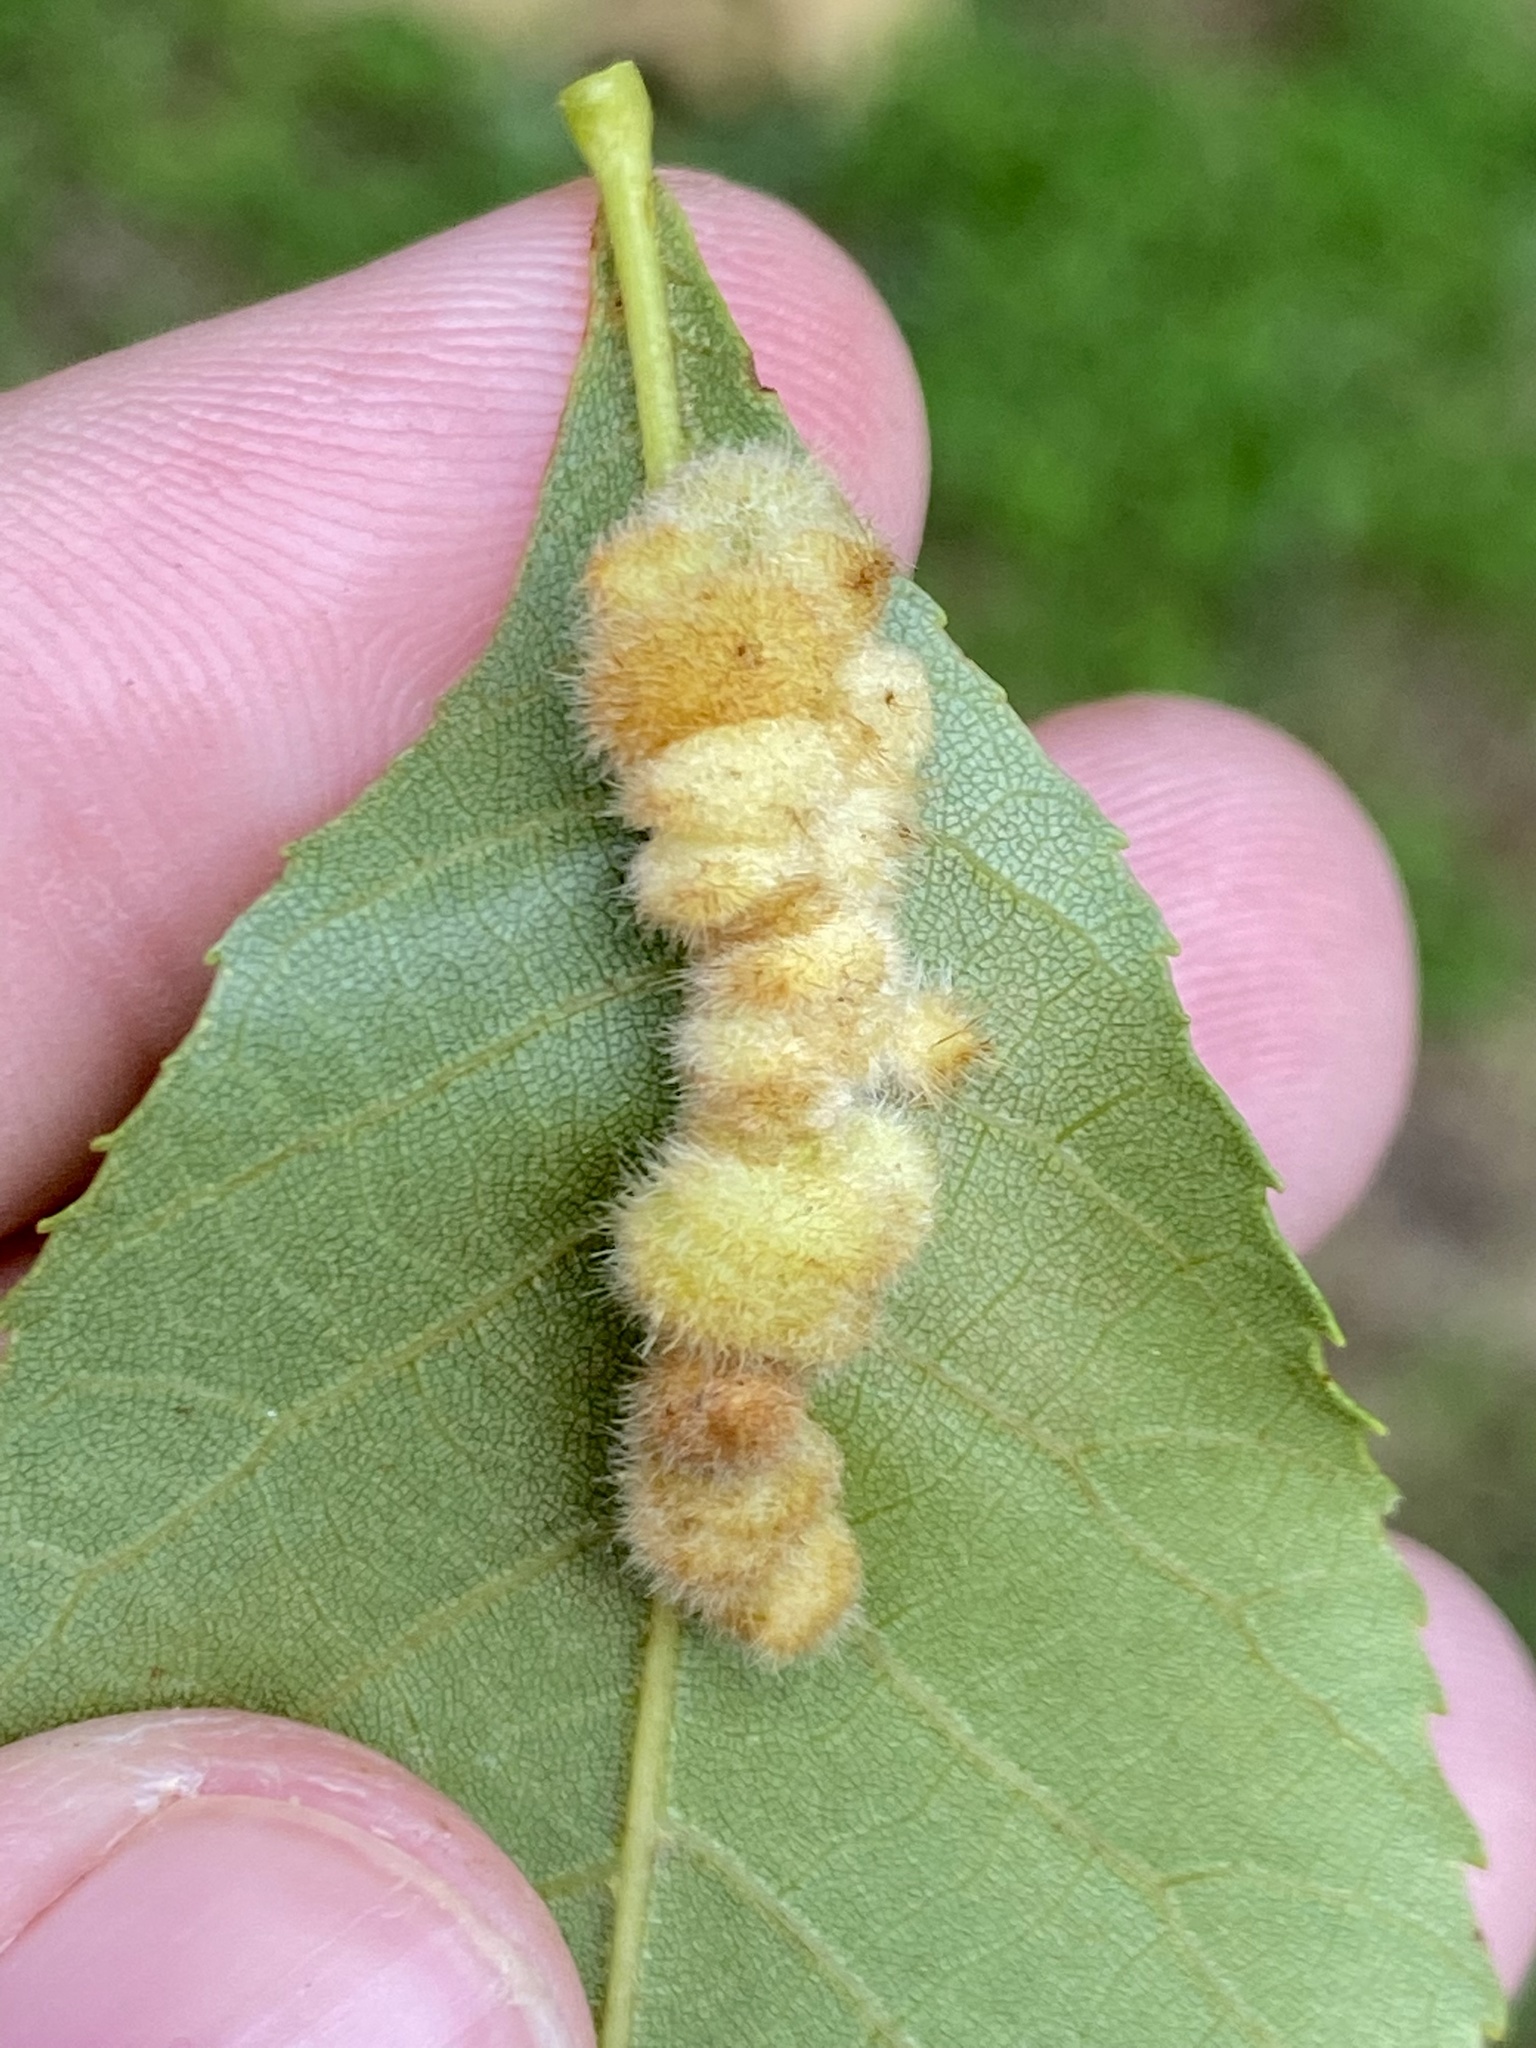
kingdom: Animalia
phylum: Arthropoda
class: Insecta
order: Diptera
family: Cecidomyiidae
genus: Caryomyia
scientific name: Caryomyia aggregata
